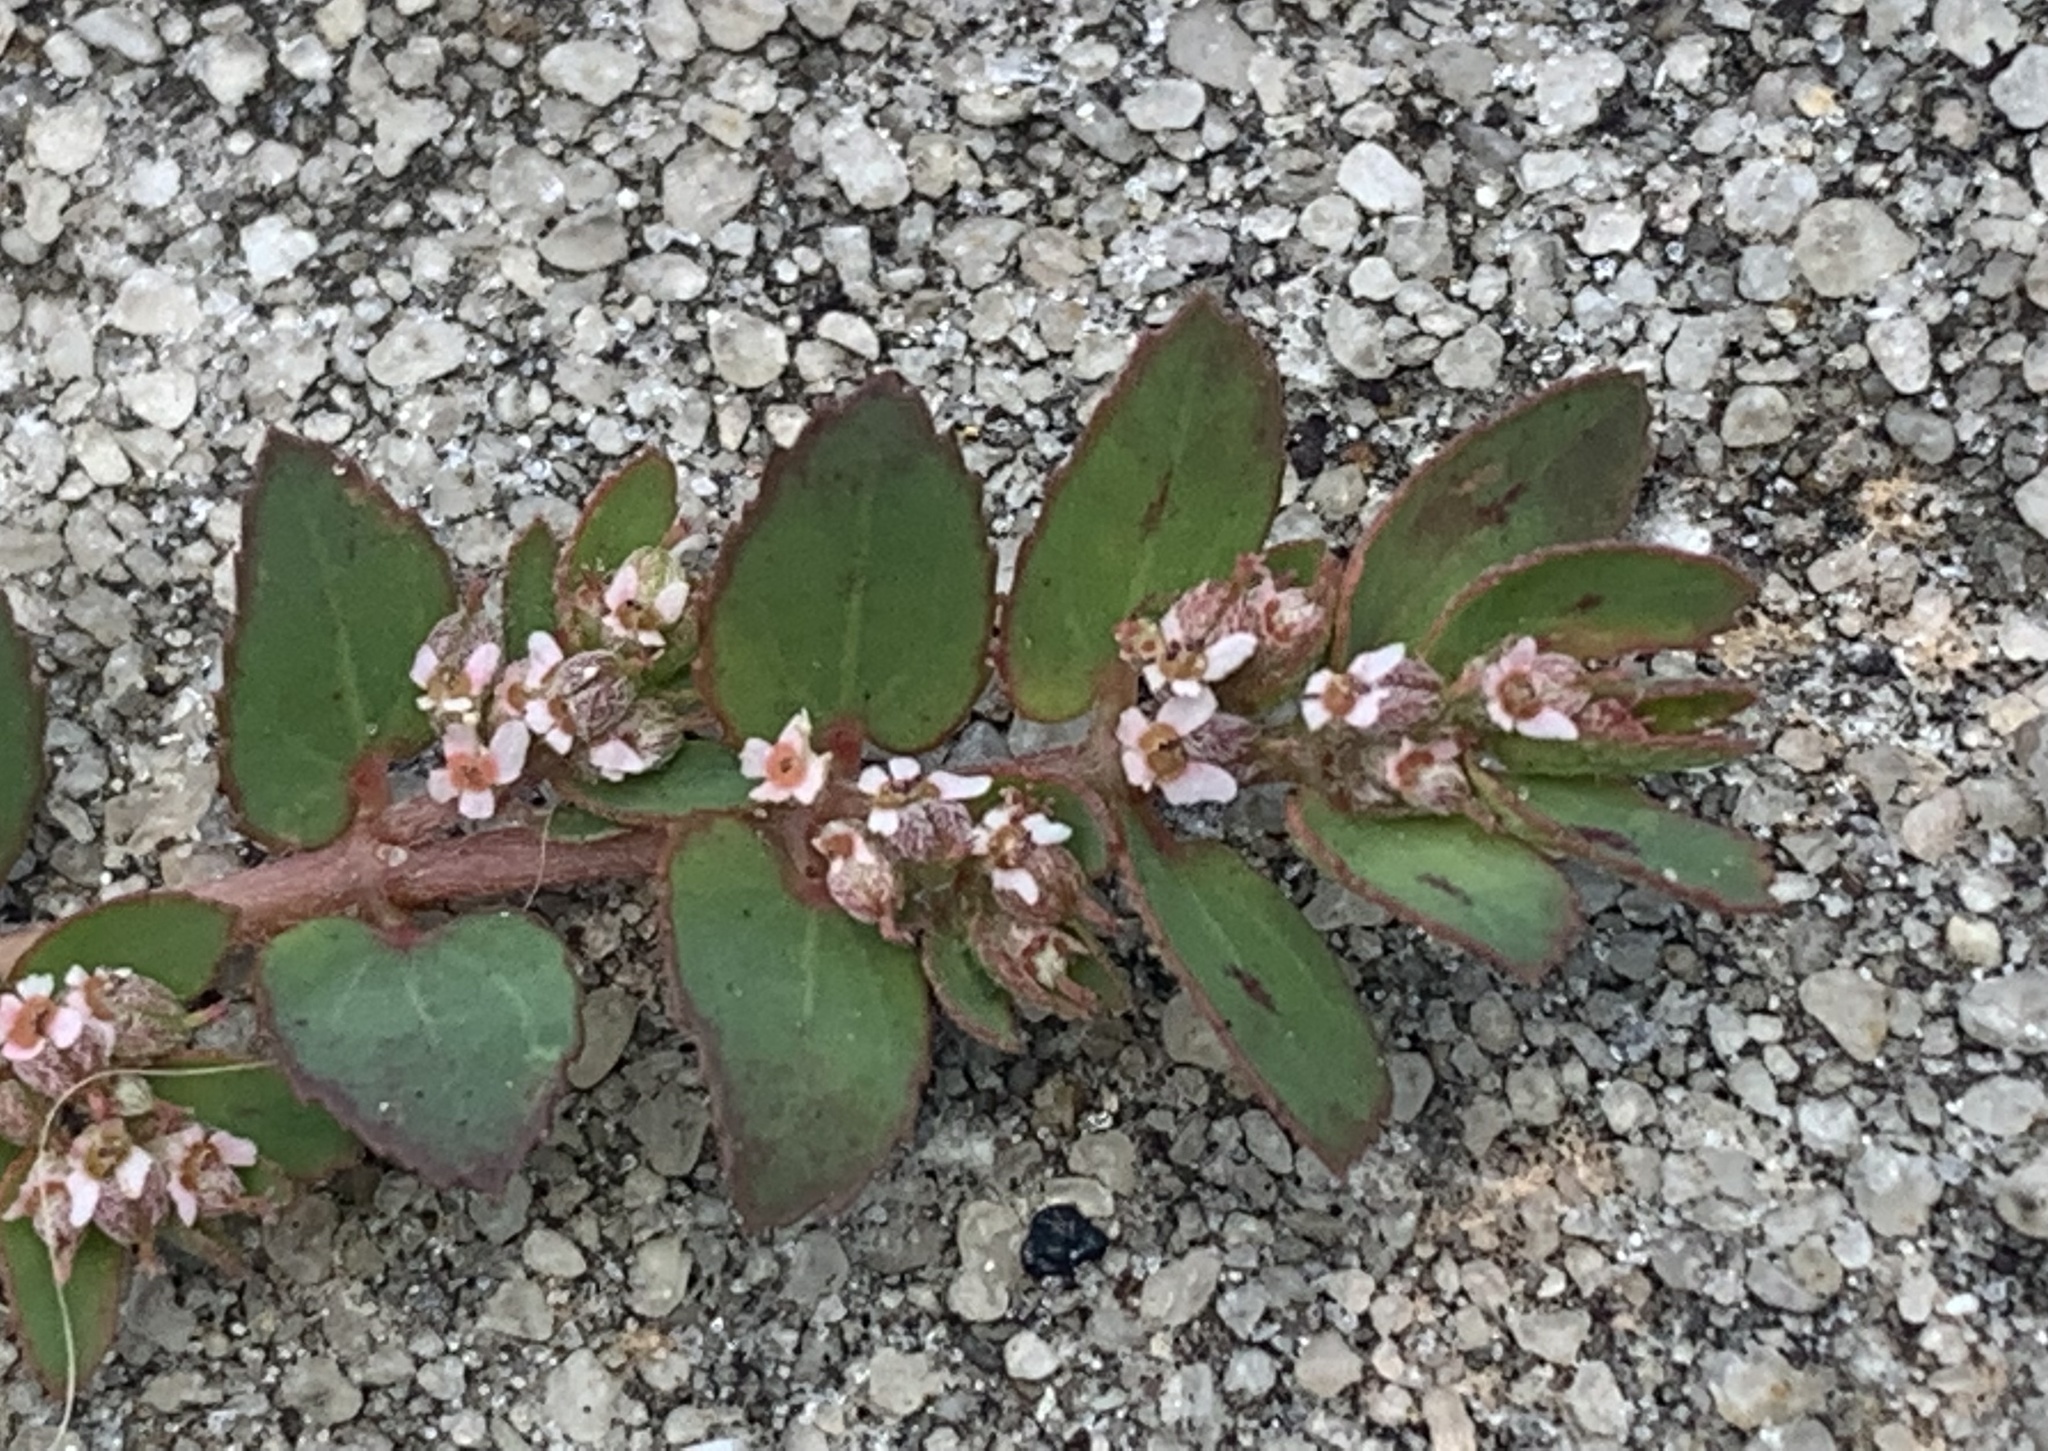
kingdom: Plantae
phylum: Tracheophyta
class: Magnoliopsida
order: Malpighiales
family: Euphorbiaceae
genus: Euphorbia
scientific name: Euphorbia thymifolia
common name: Gulf sandmat
